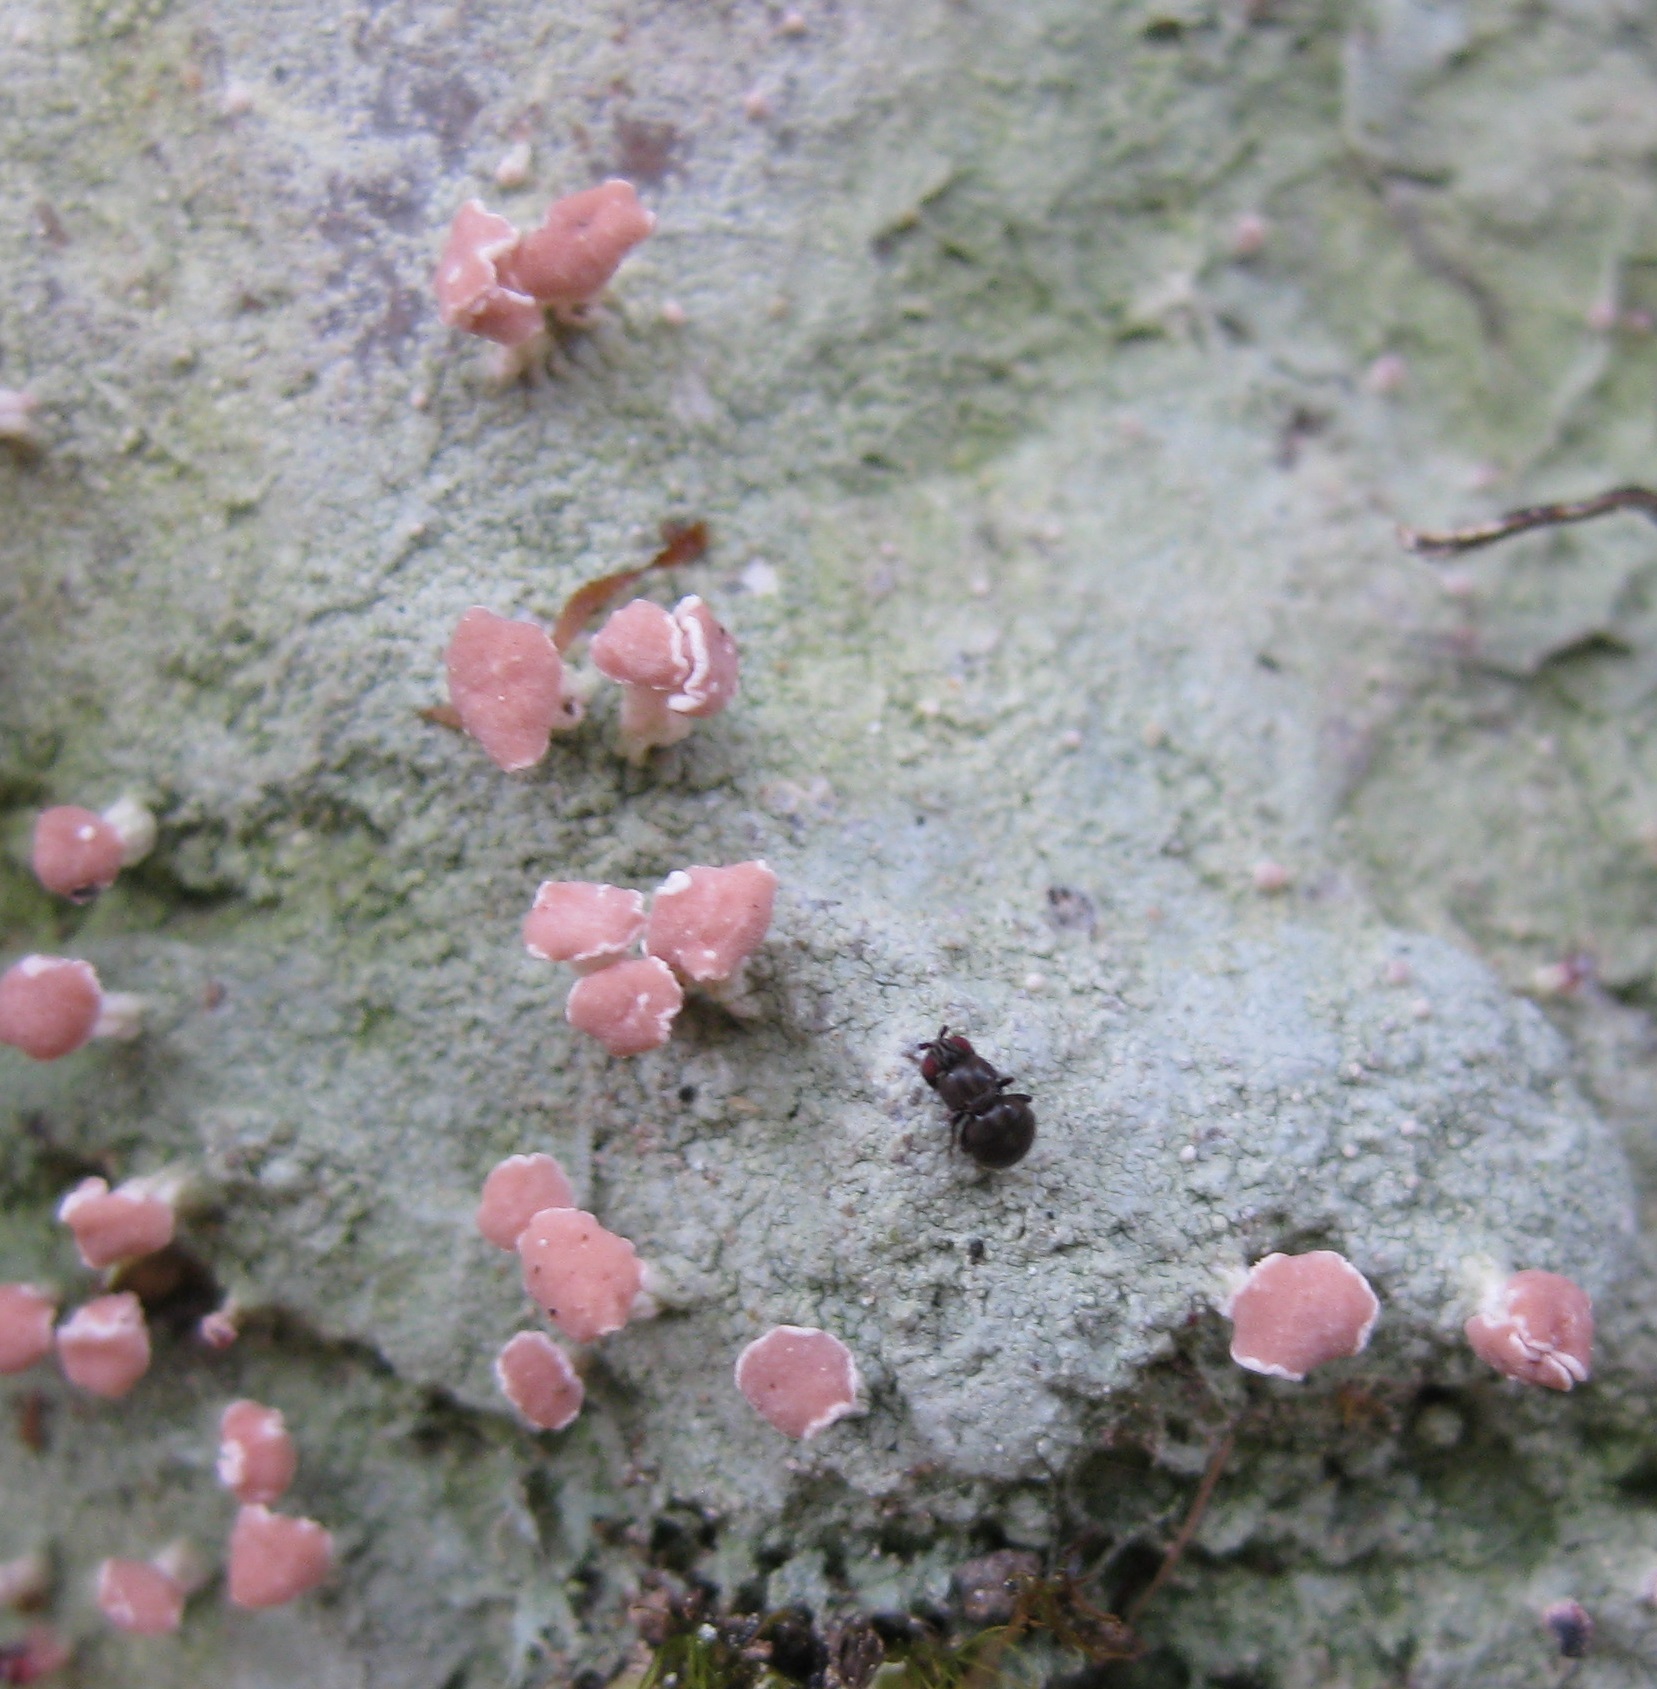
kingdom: Fungi
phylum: Ascomycota
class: Lecanoromycetes
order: Baeomycetales
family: Baeomycetaceae
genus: Baeomyces
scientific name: Baeomyces heteromorphus
